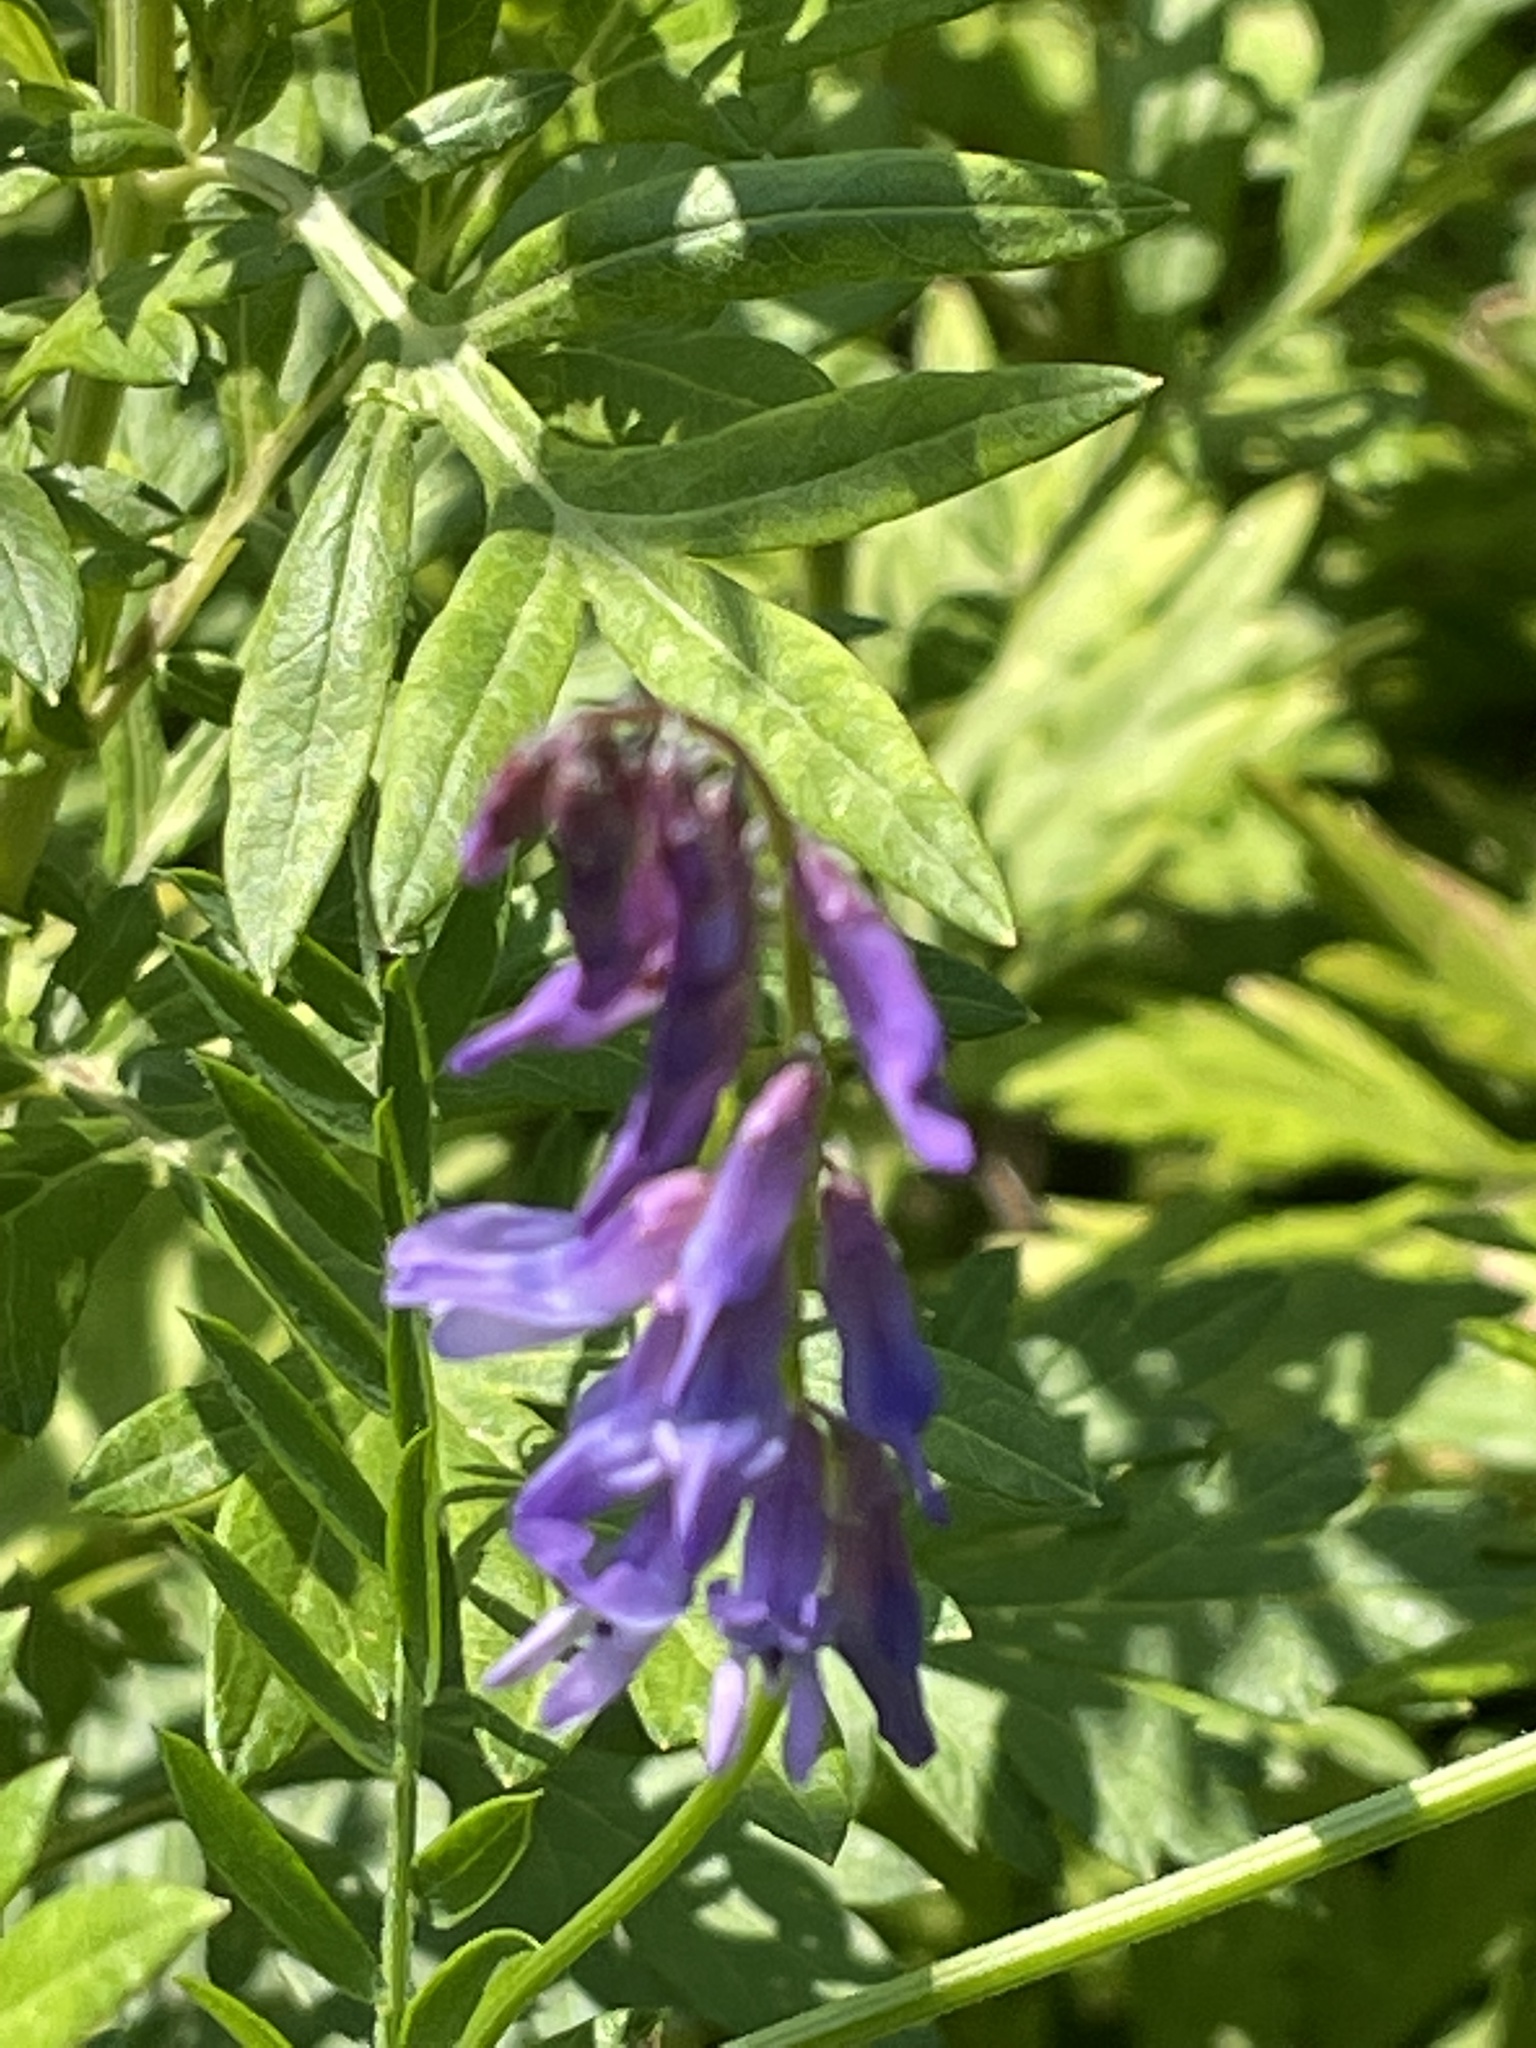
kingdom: Plantae
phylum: Tracheophyta
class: Magnoliopsida
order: Fabales
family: Fabaceae
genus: Vicia
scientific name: Vicia cracca
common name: Bird vetch
